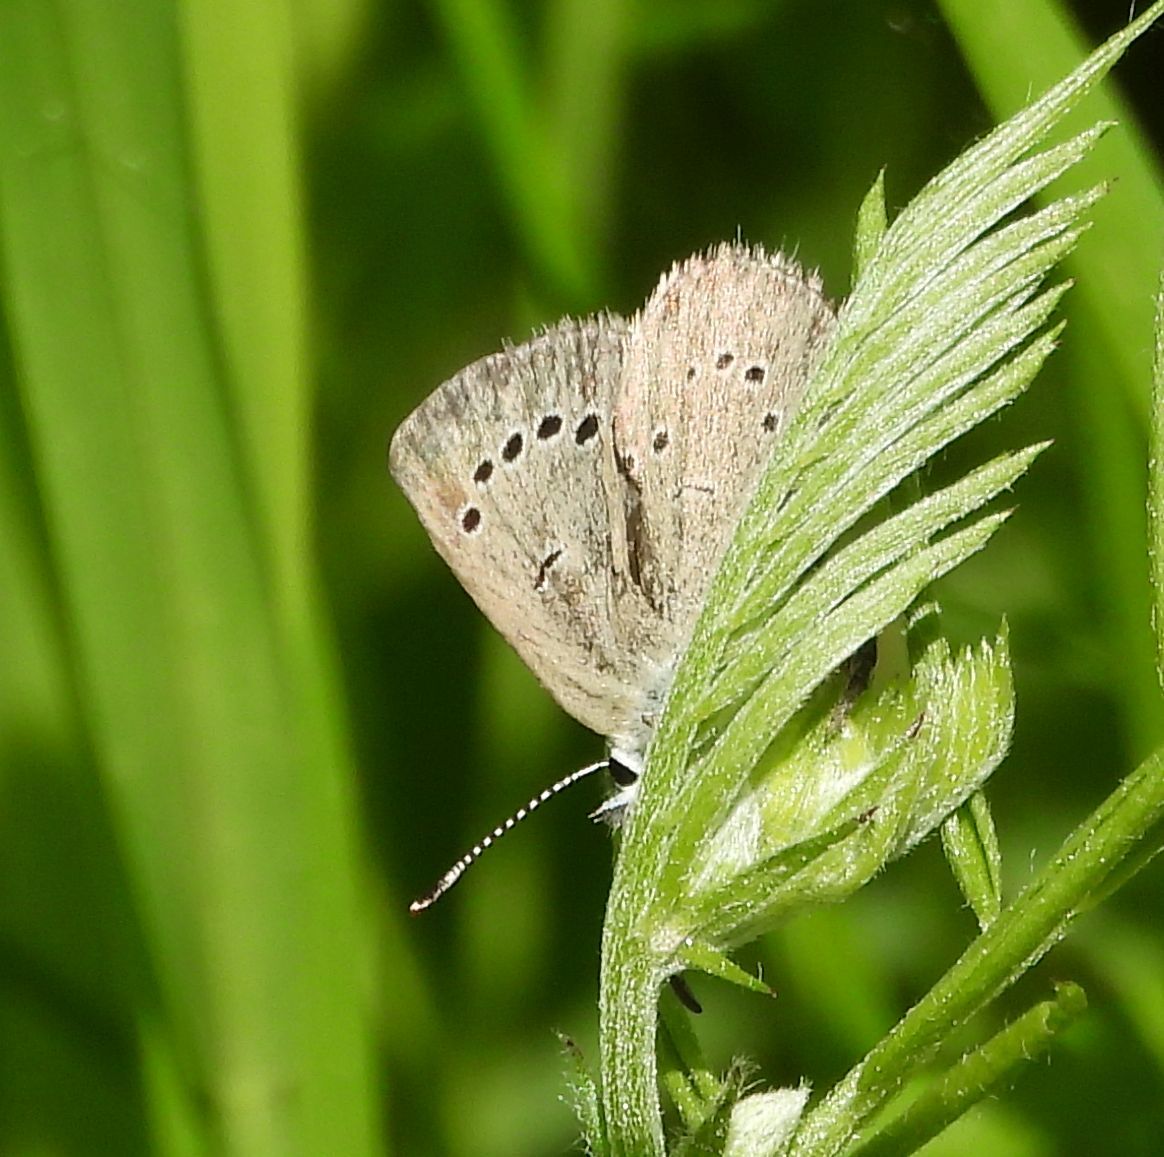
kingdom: Animalia
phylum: Arthropoda
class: Insecta
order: Lepidoptera
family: Lycaenidae
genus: Glaucopsyche
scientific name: Glaucopsyche lygdamus
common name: Silvery blue
